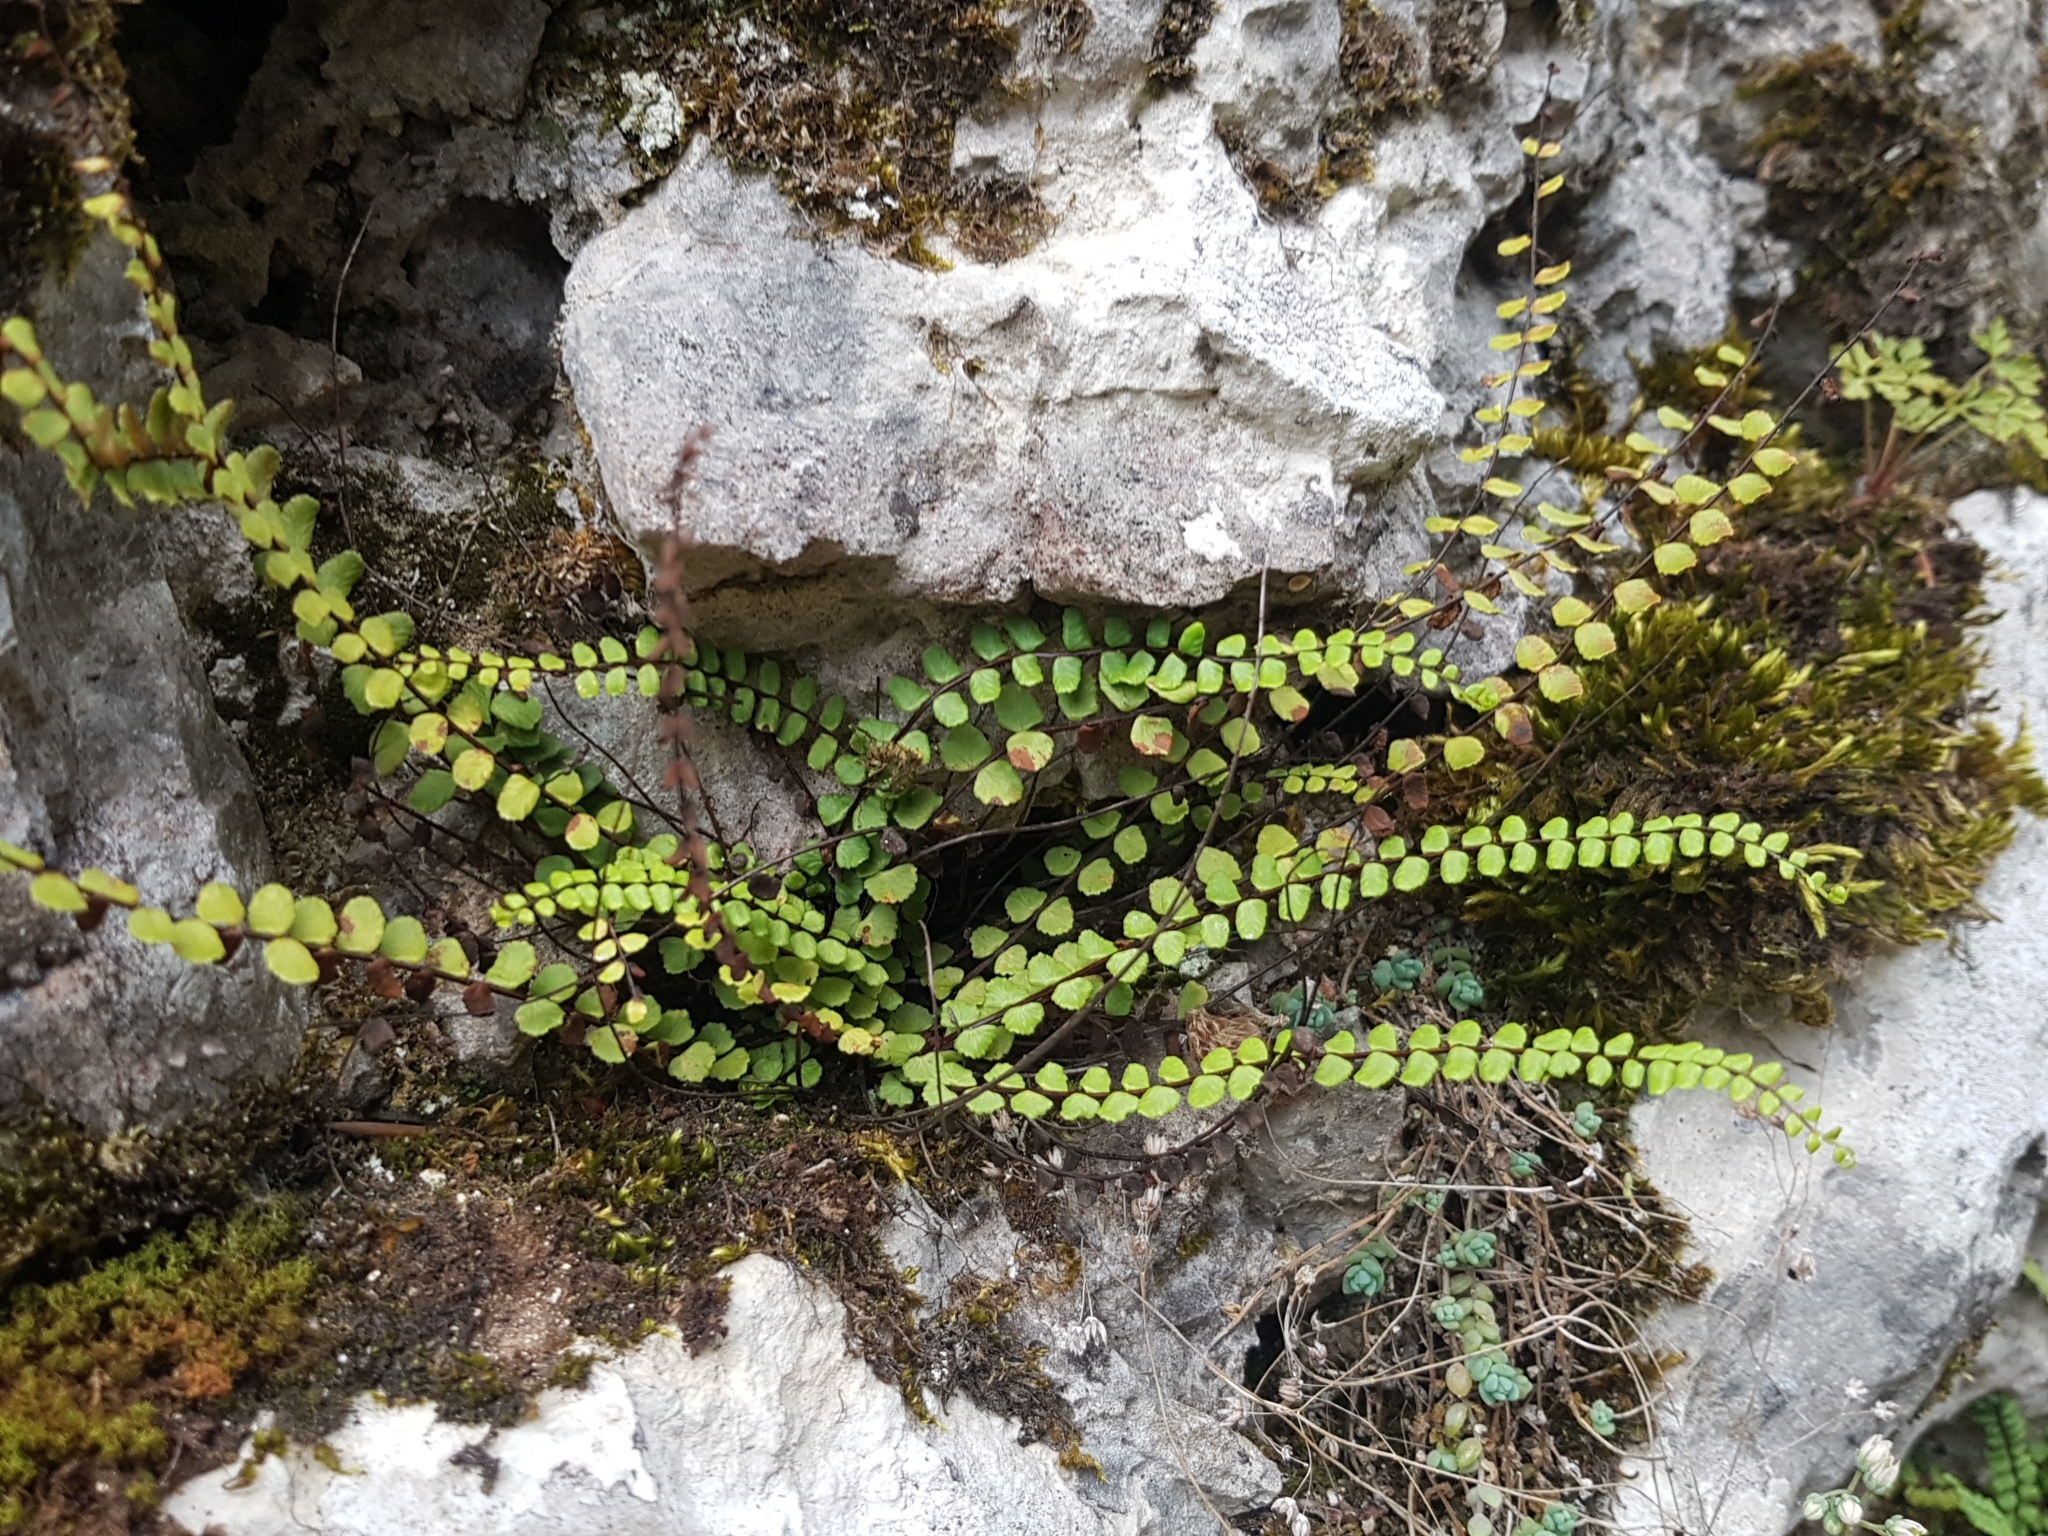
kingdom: Plantae
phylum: Tracheophyta
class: Polypodiopsida
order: Polypodiales
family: Aspleniaceae
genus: Asplenium
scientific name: Asplenium trichomanes
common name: Maidenhair spleenwort
